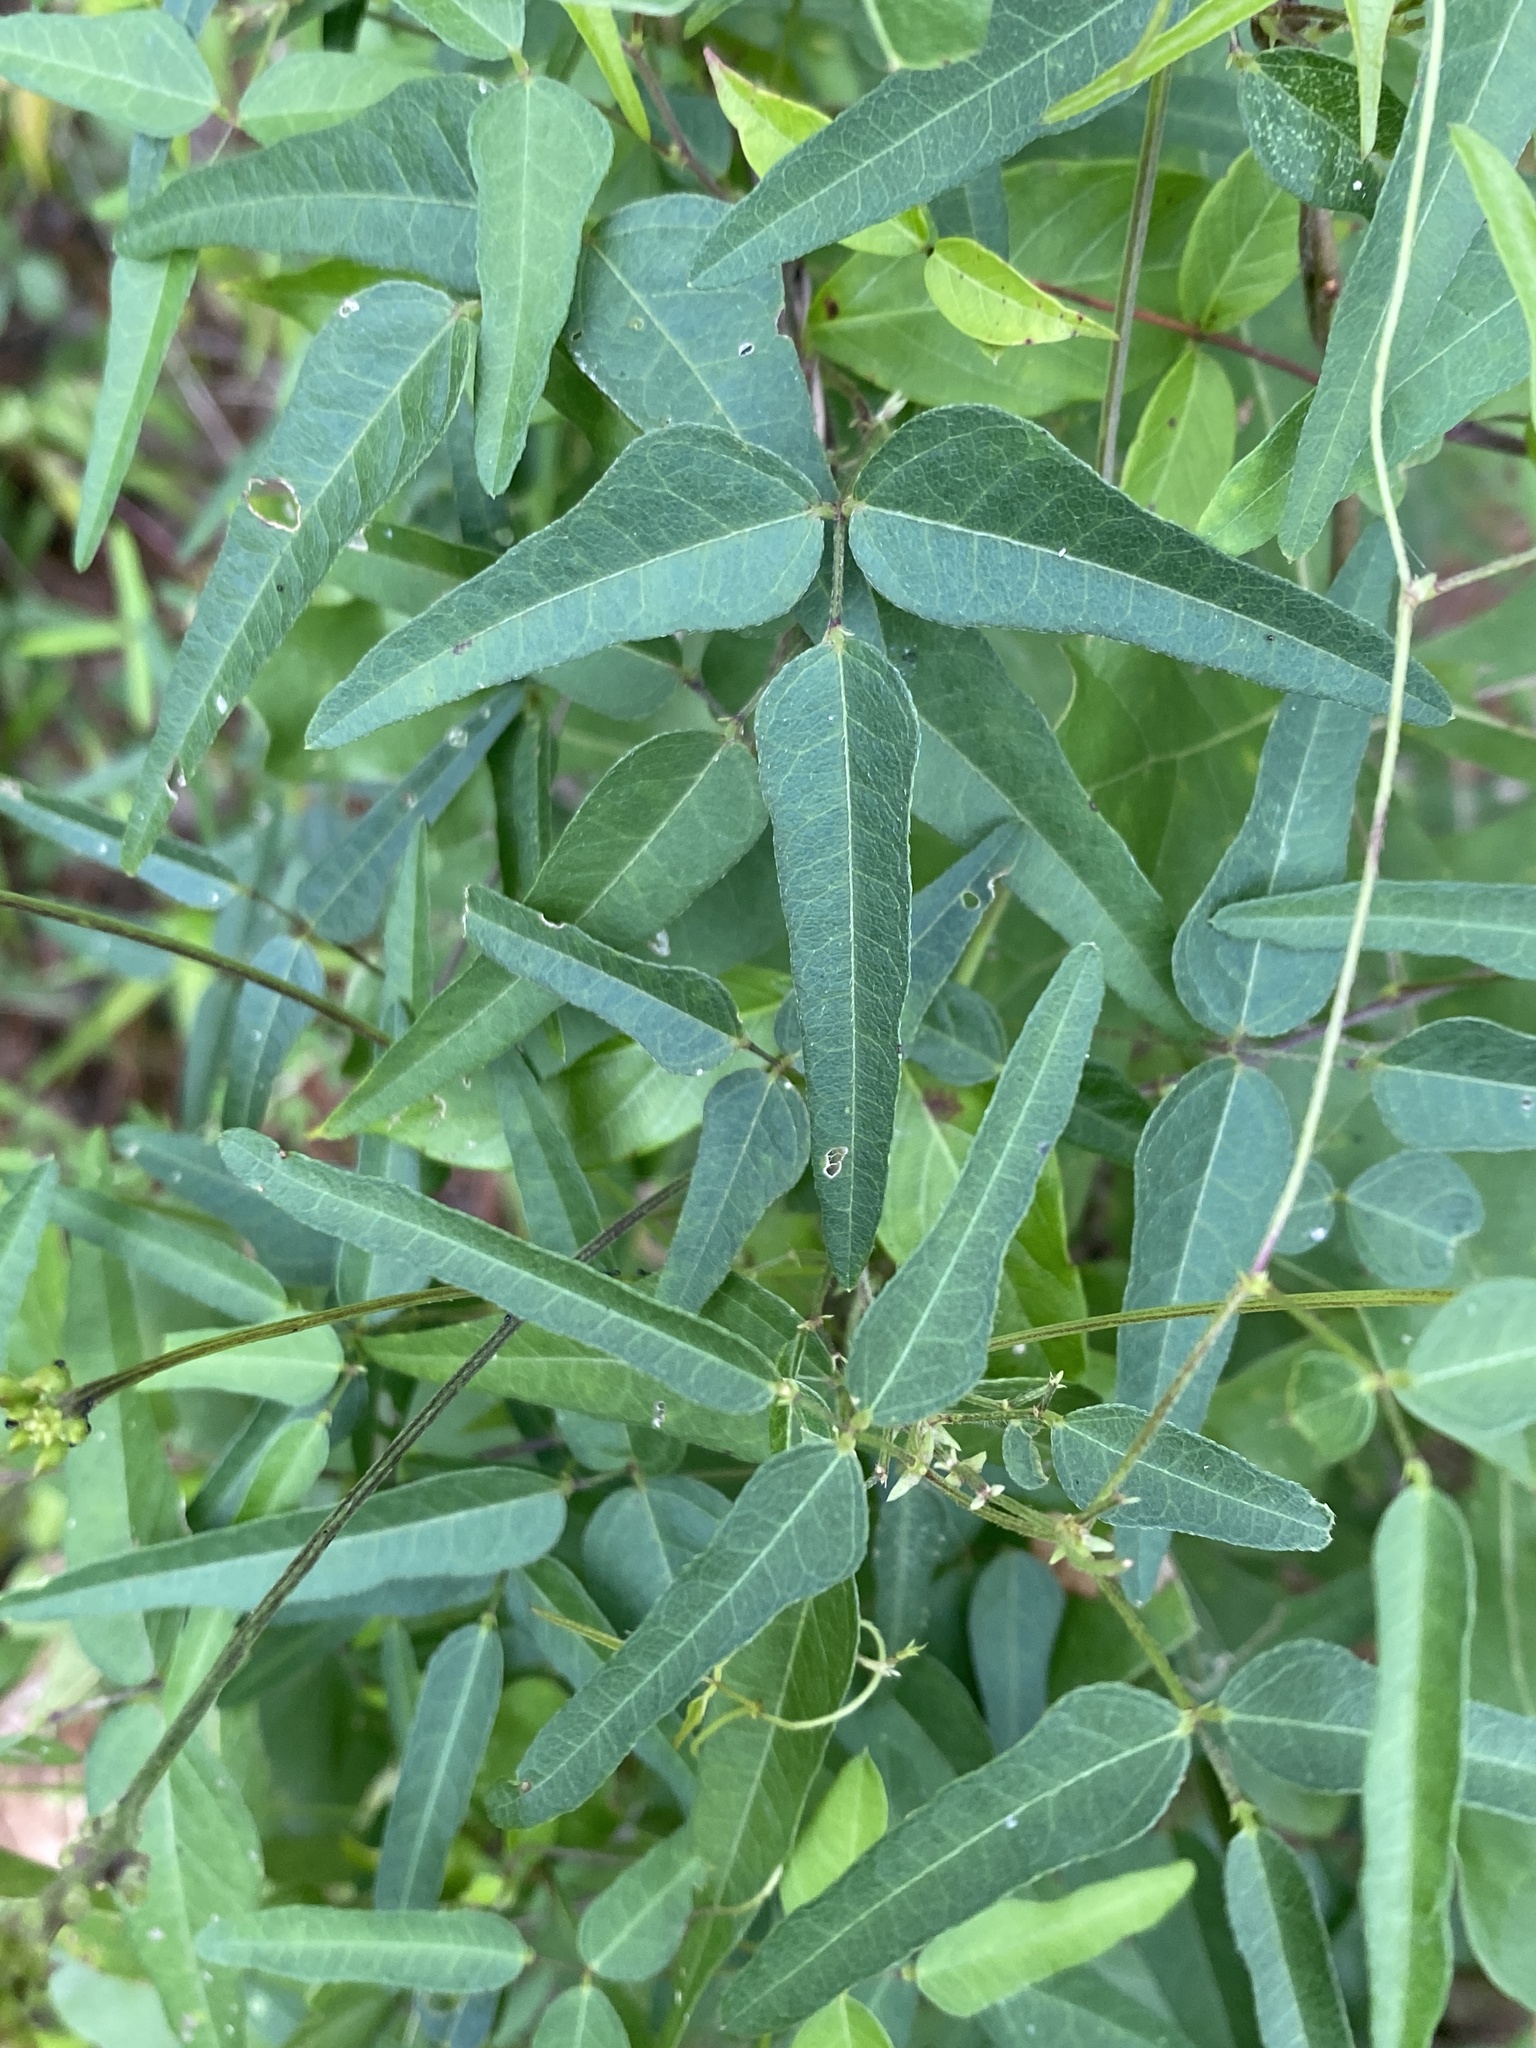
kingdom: Plantae
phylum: Tracheophyta
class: Magnoliopsida
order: Fabales
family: Fabaceae
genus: Strophostyles
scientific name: Strophostyles umbellata
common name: Perennial wild bean
